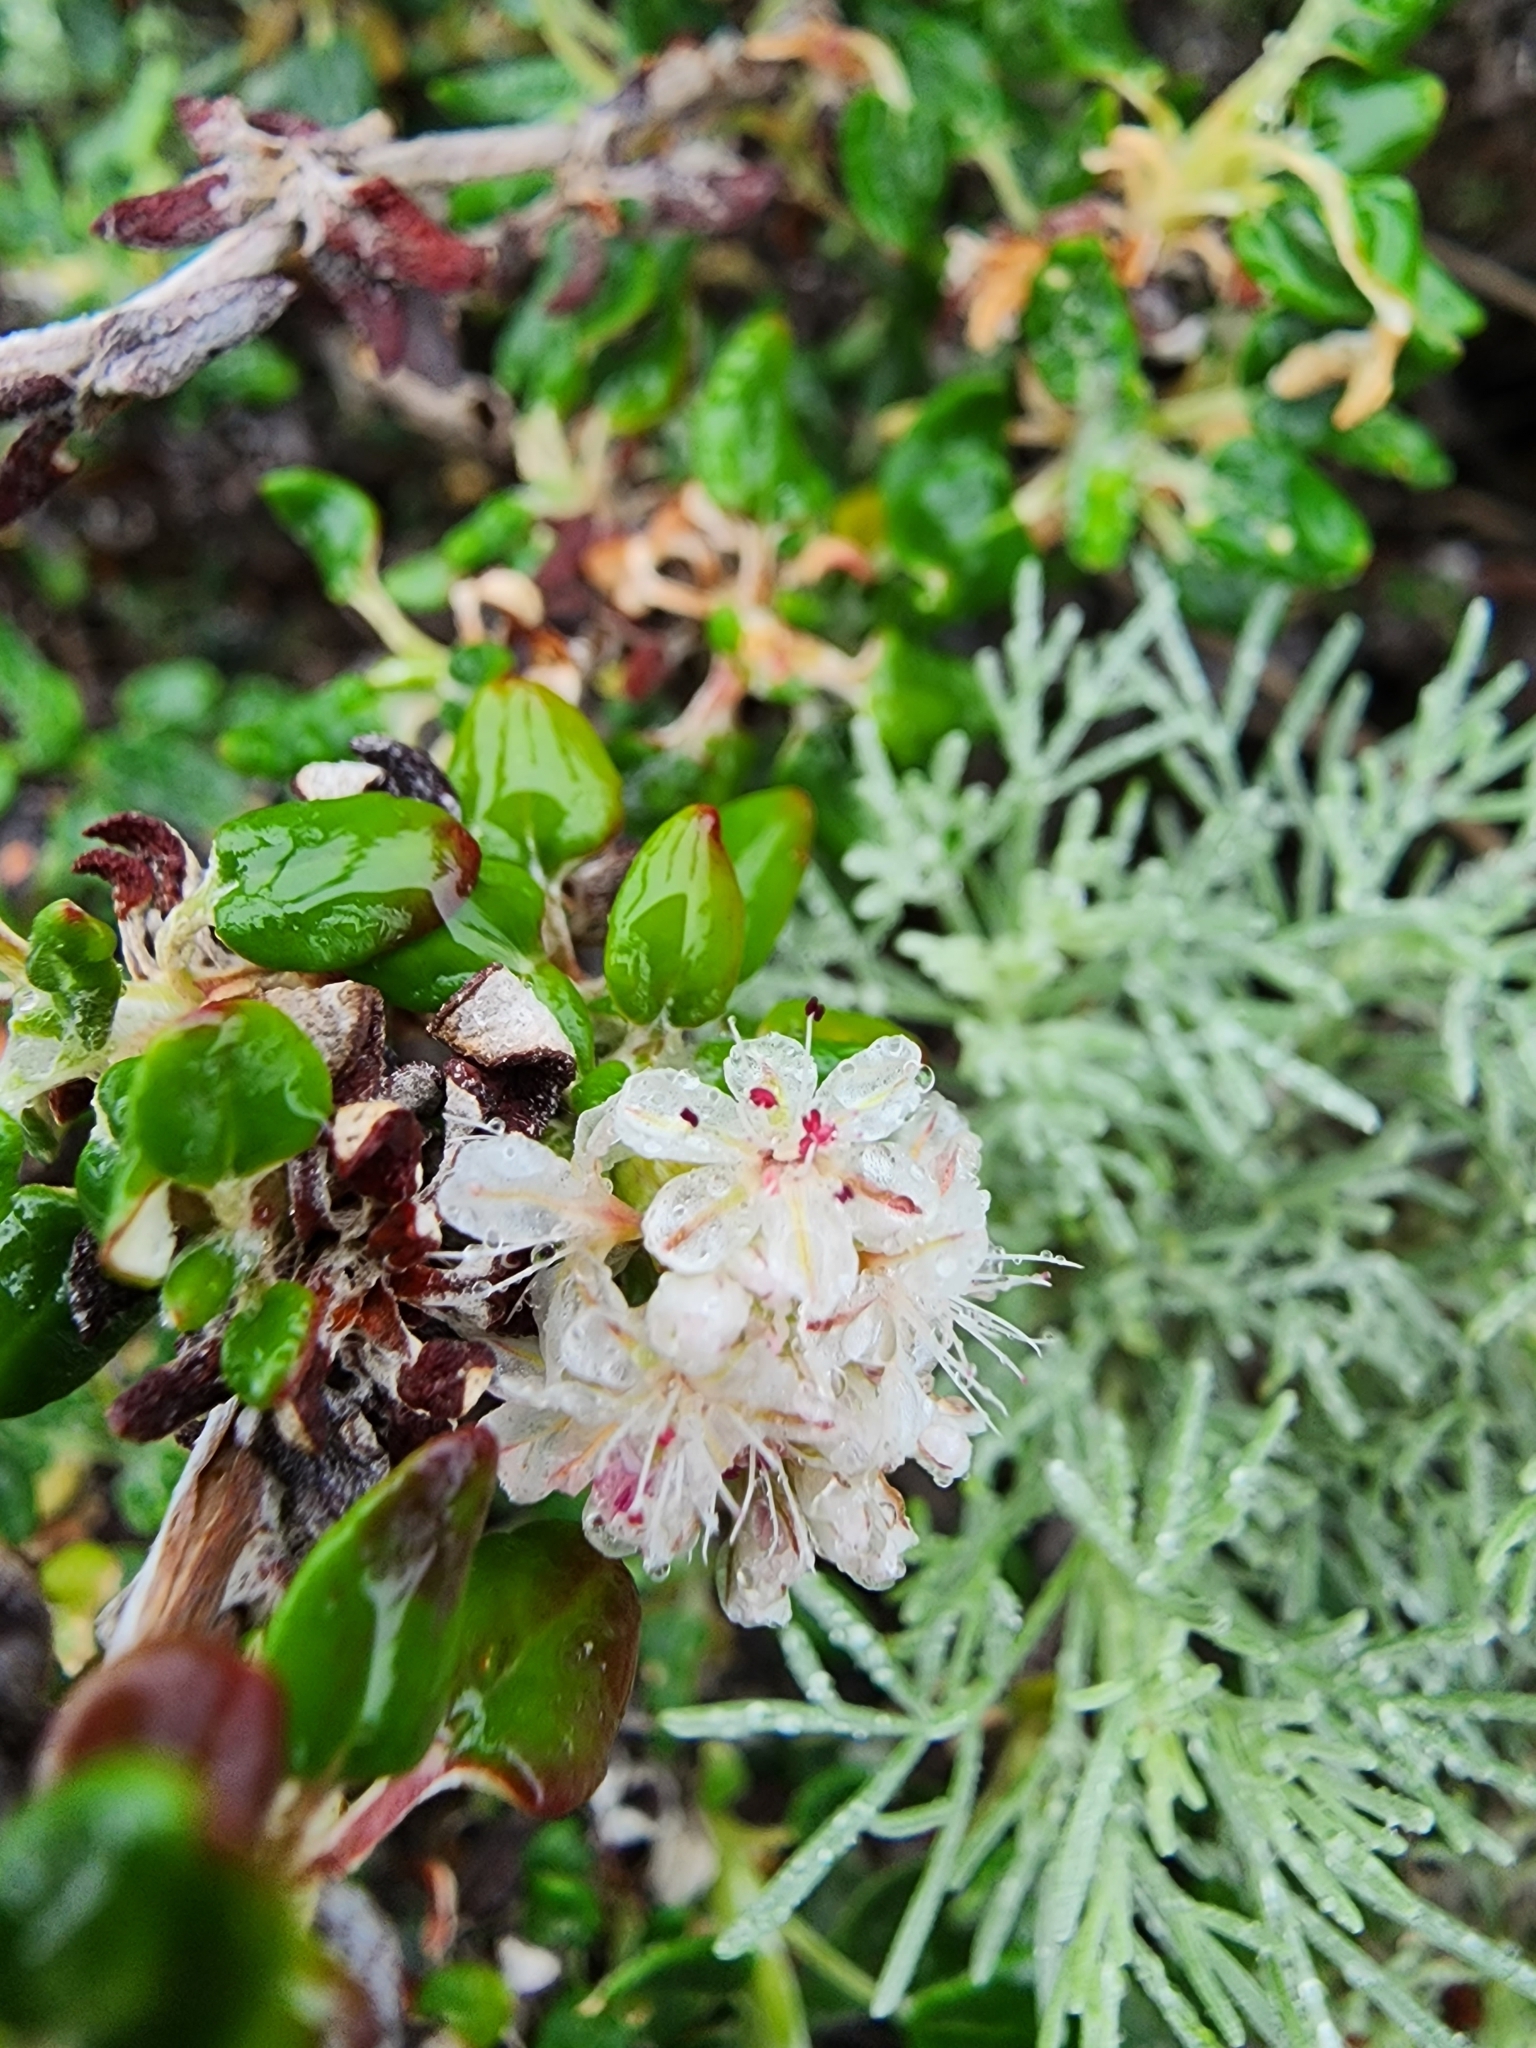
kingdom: Plantae
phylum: Tracheophyta
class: Magnoliopsida
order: Caryophyllales
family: Polygonaceae
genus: Eriogonum
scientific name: Eriogonum parvifolium
